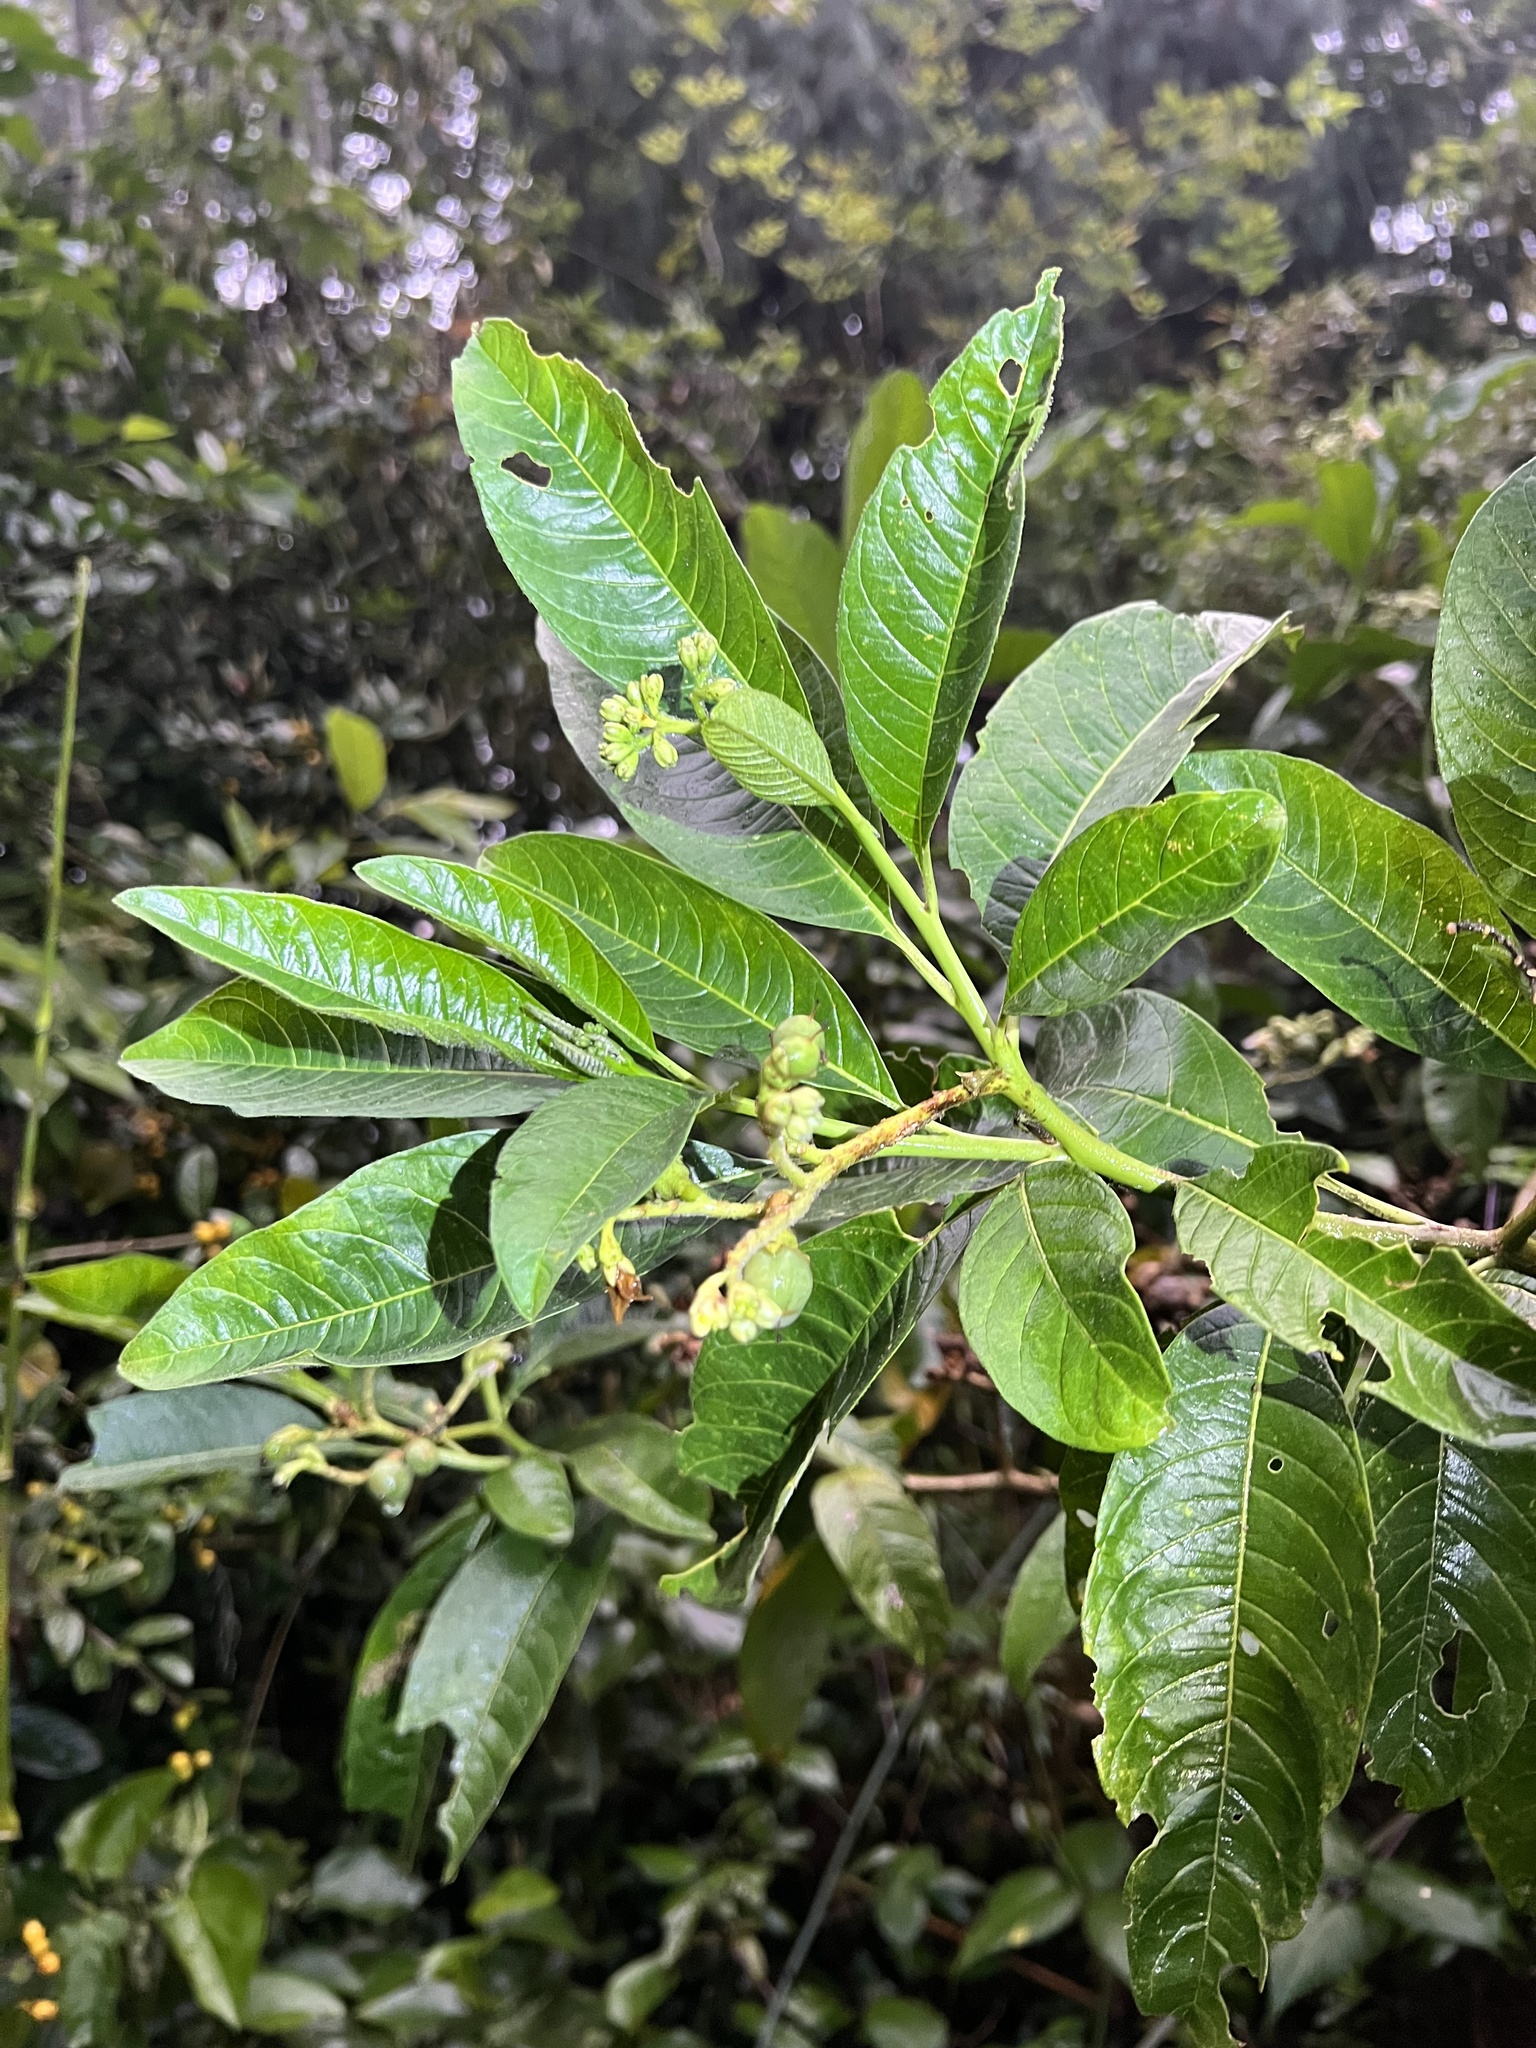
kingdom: Plantae
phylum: Tracheophyta
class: Magnoliopsida
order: Solanales
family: Solanaceae
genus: Solanum
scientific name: Solanum oblongifolium
